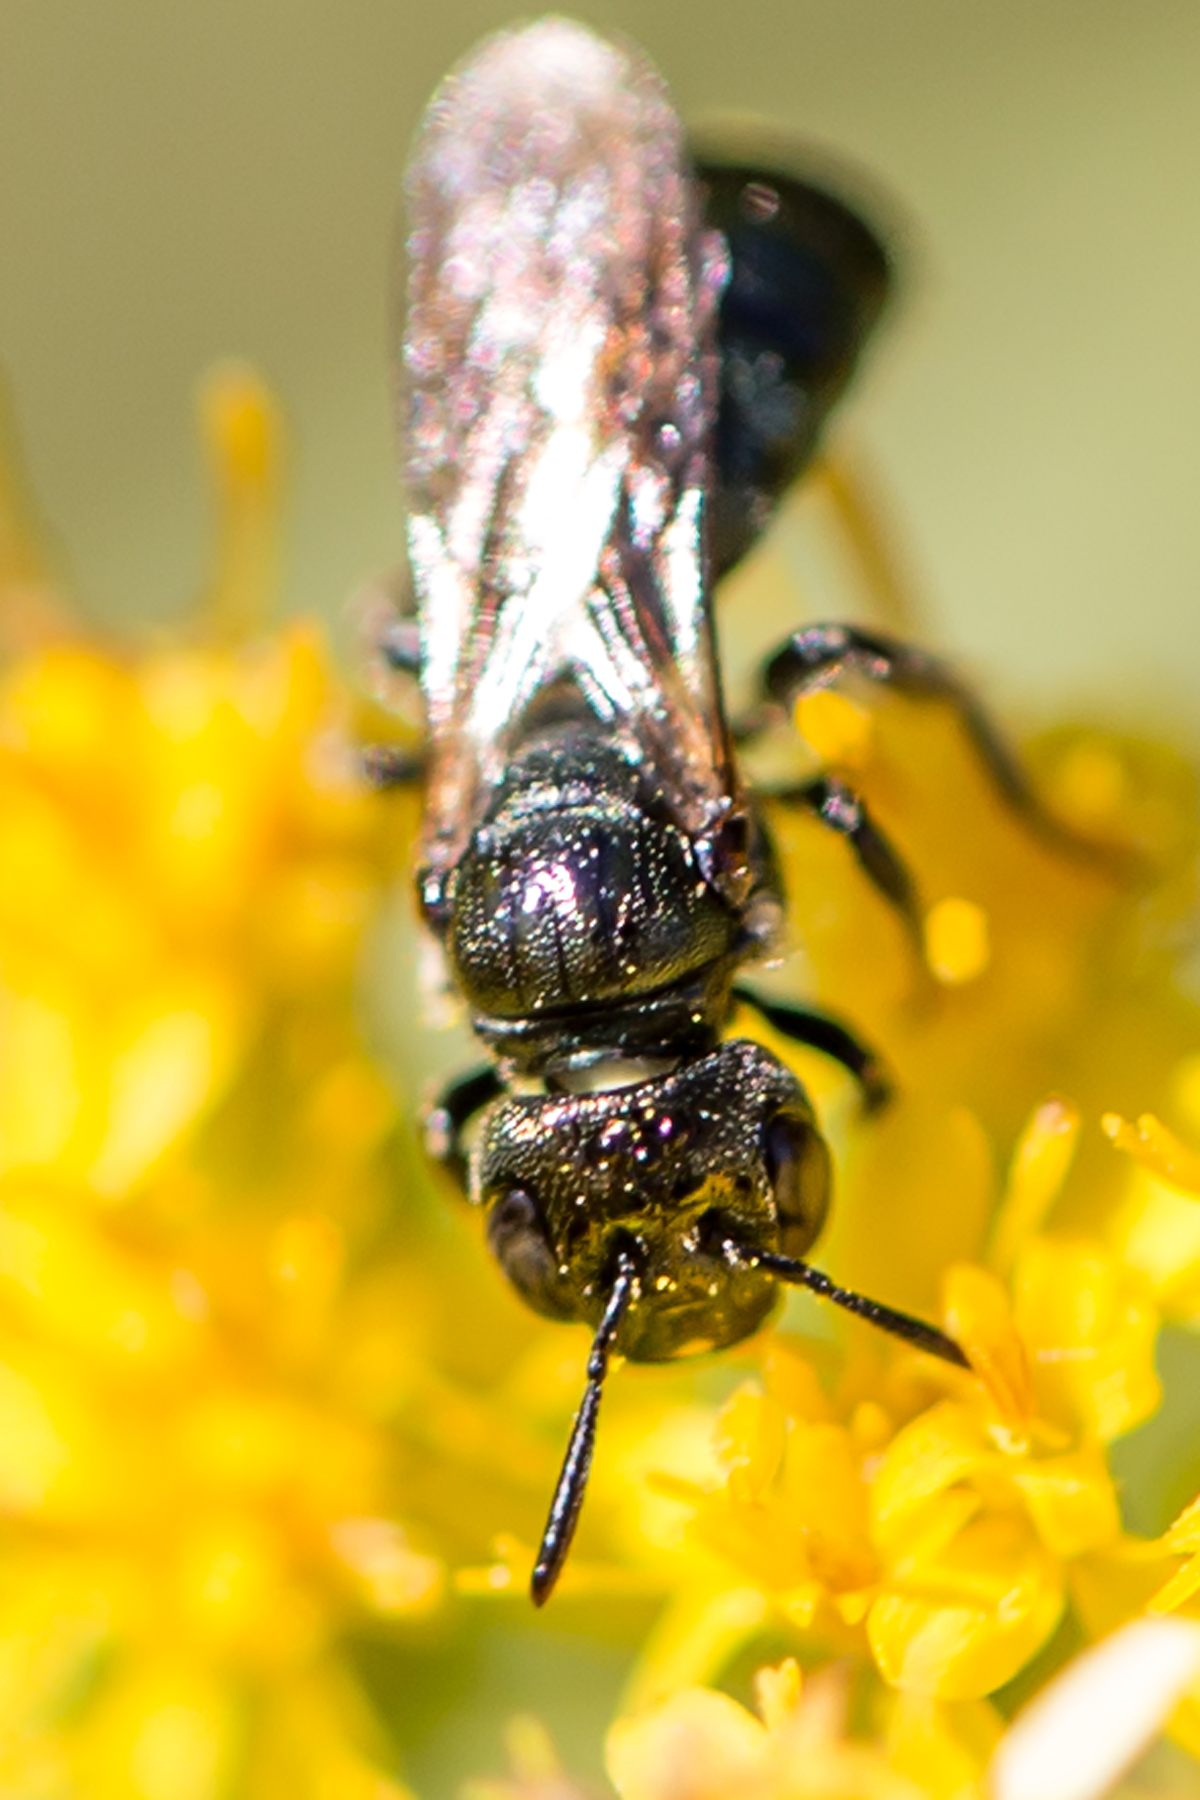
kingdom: Animalia
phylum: Arthropoda
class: Insecta
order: Hymenoptera
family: Apidae
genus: Zadontomerus
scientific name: Zadontomerus
